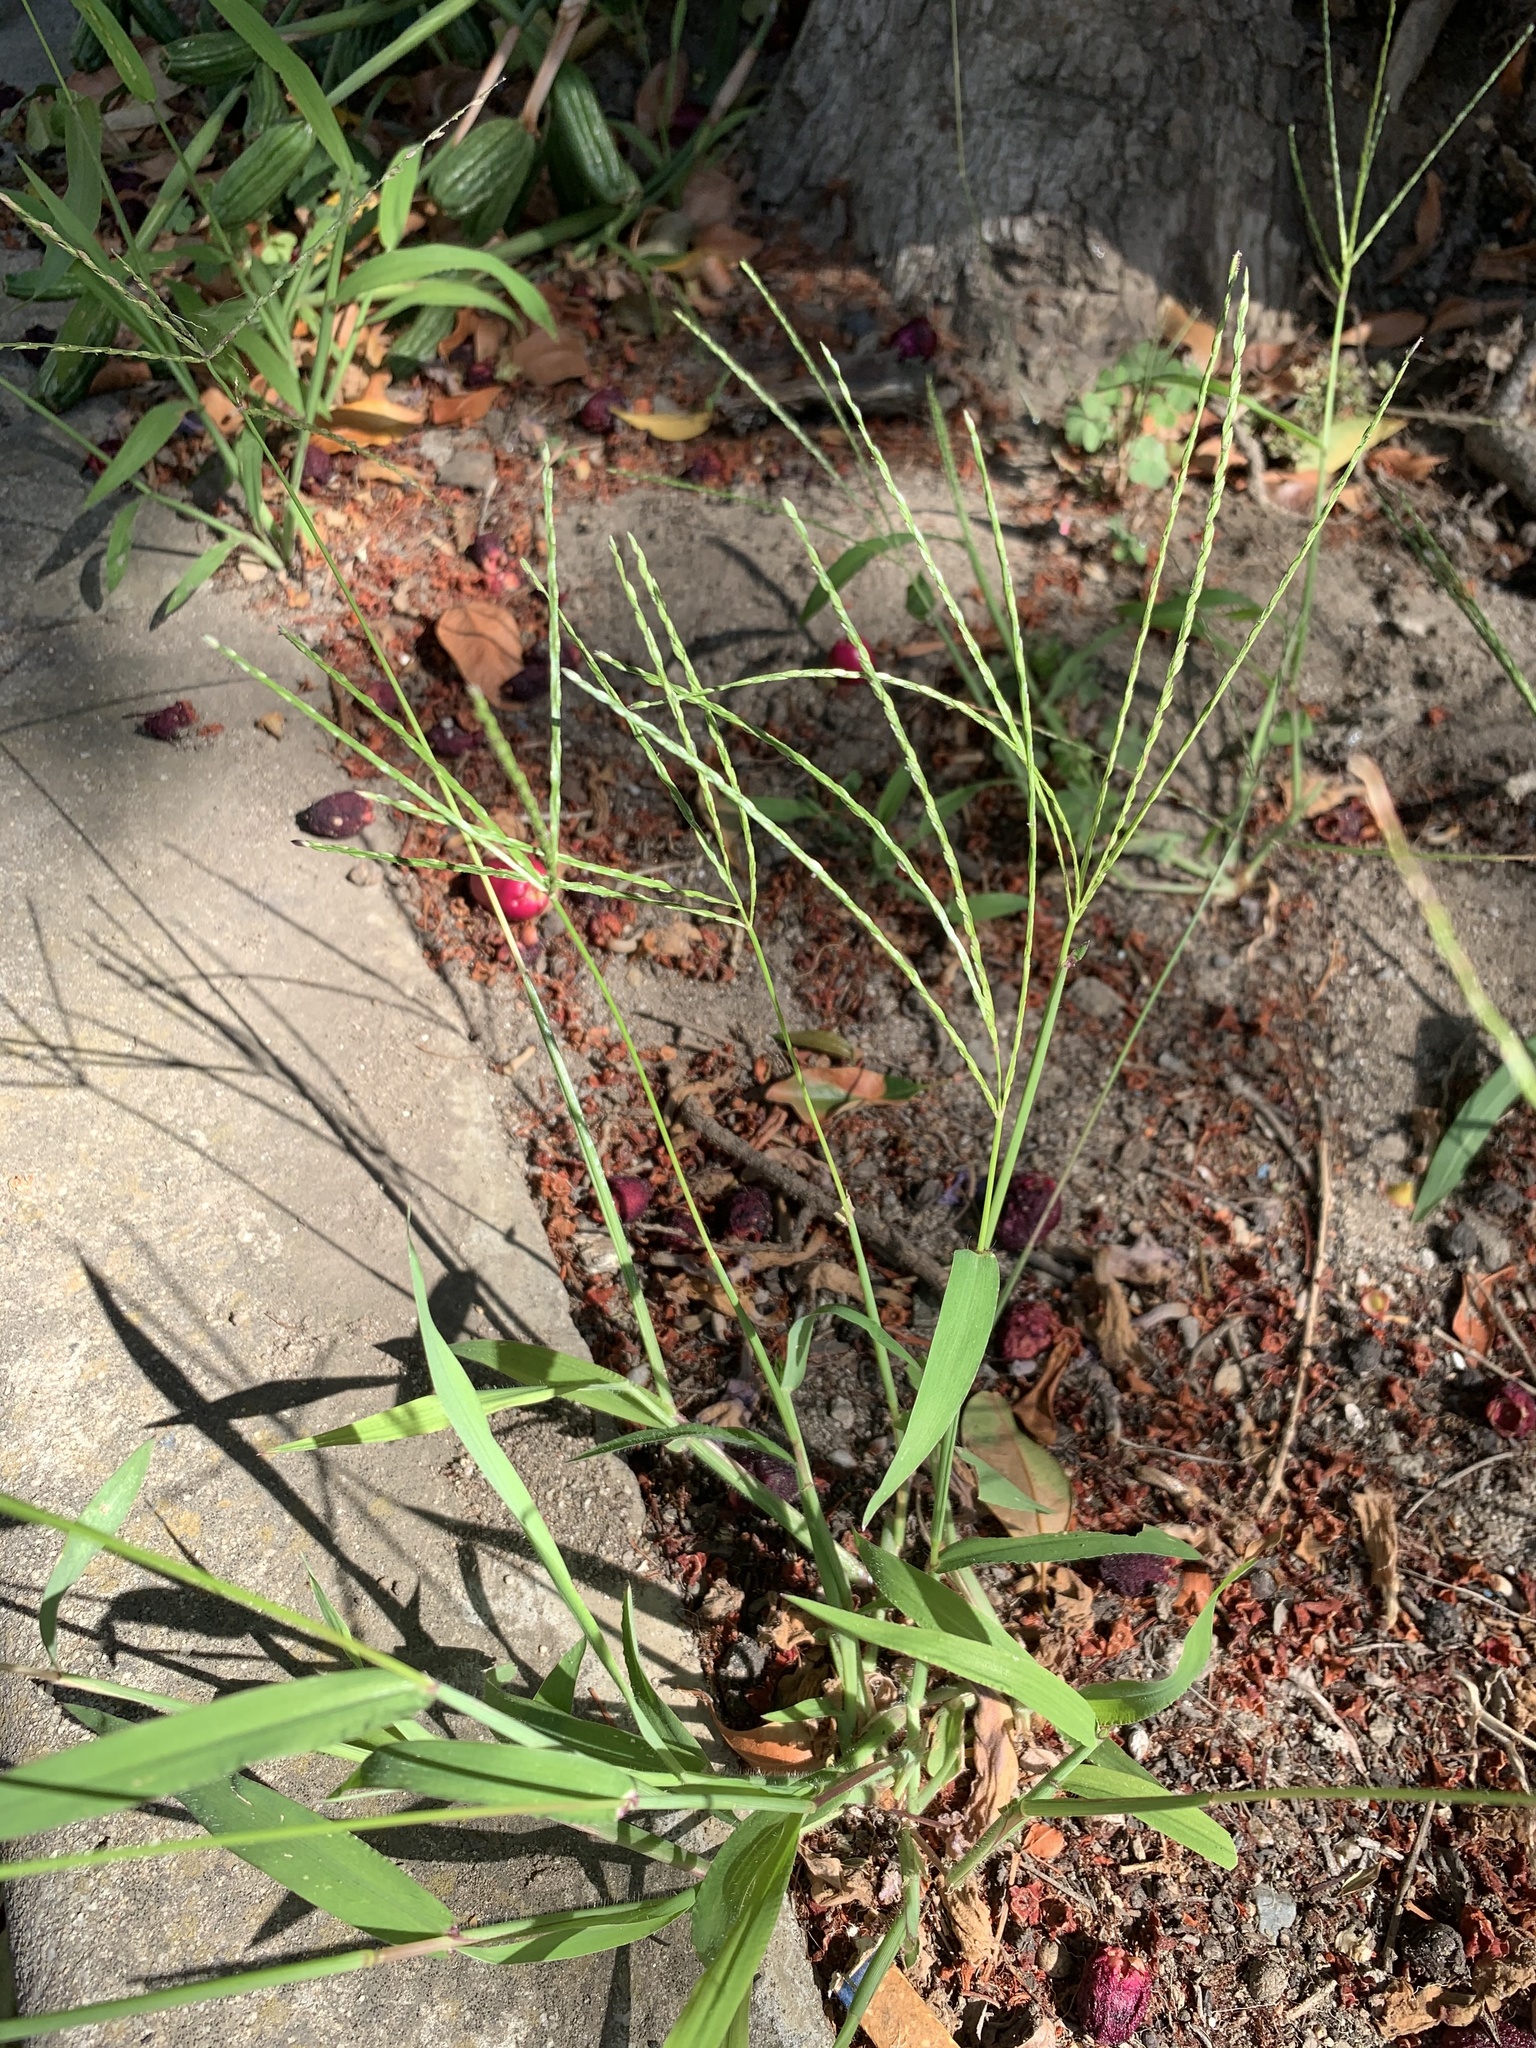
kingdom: Plantae
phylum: Tracheophyta
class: Liliopsida
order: Poales
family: Poaceae
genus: Digitaria
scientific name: Digitaria sanguinalis
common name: Hairy crabgrass
